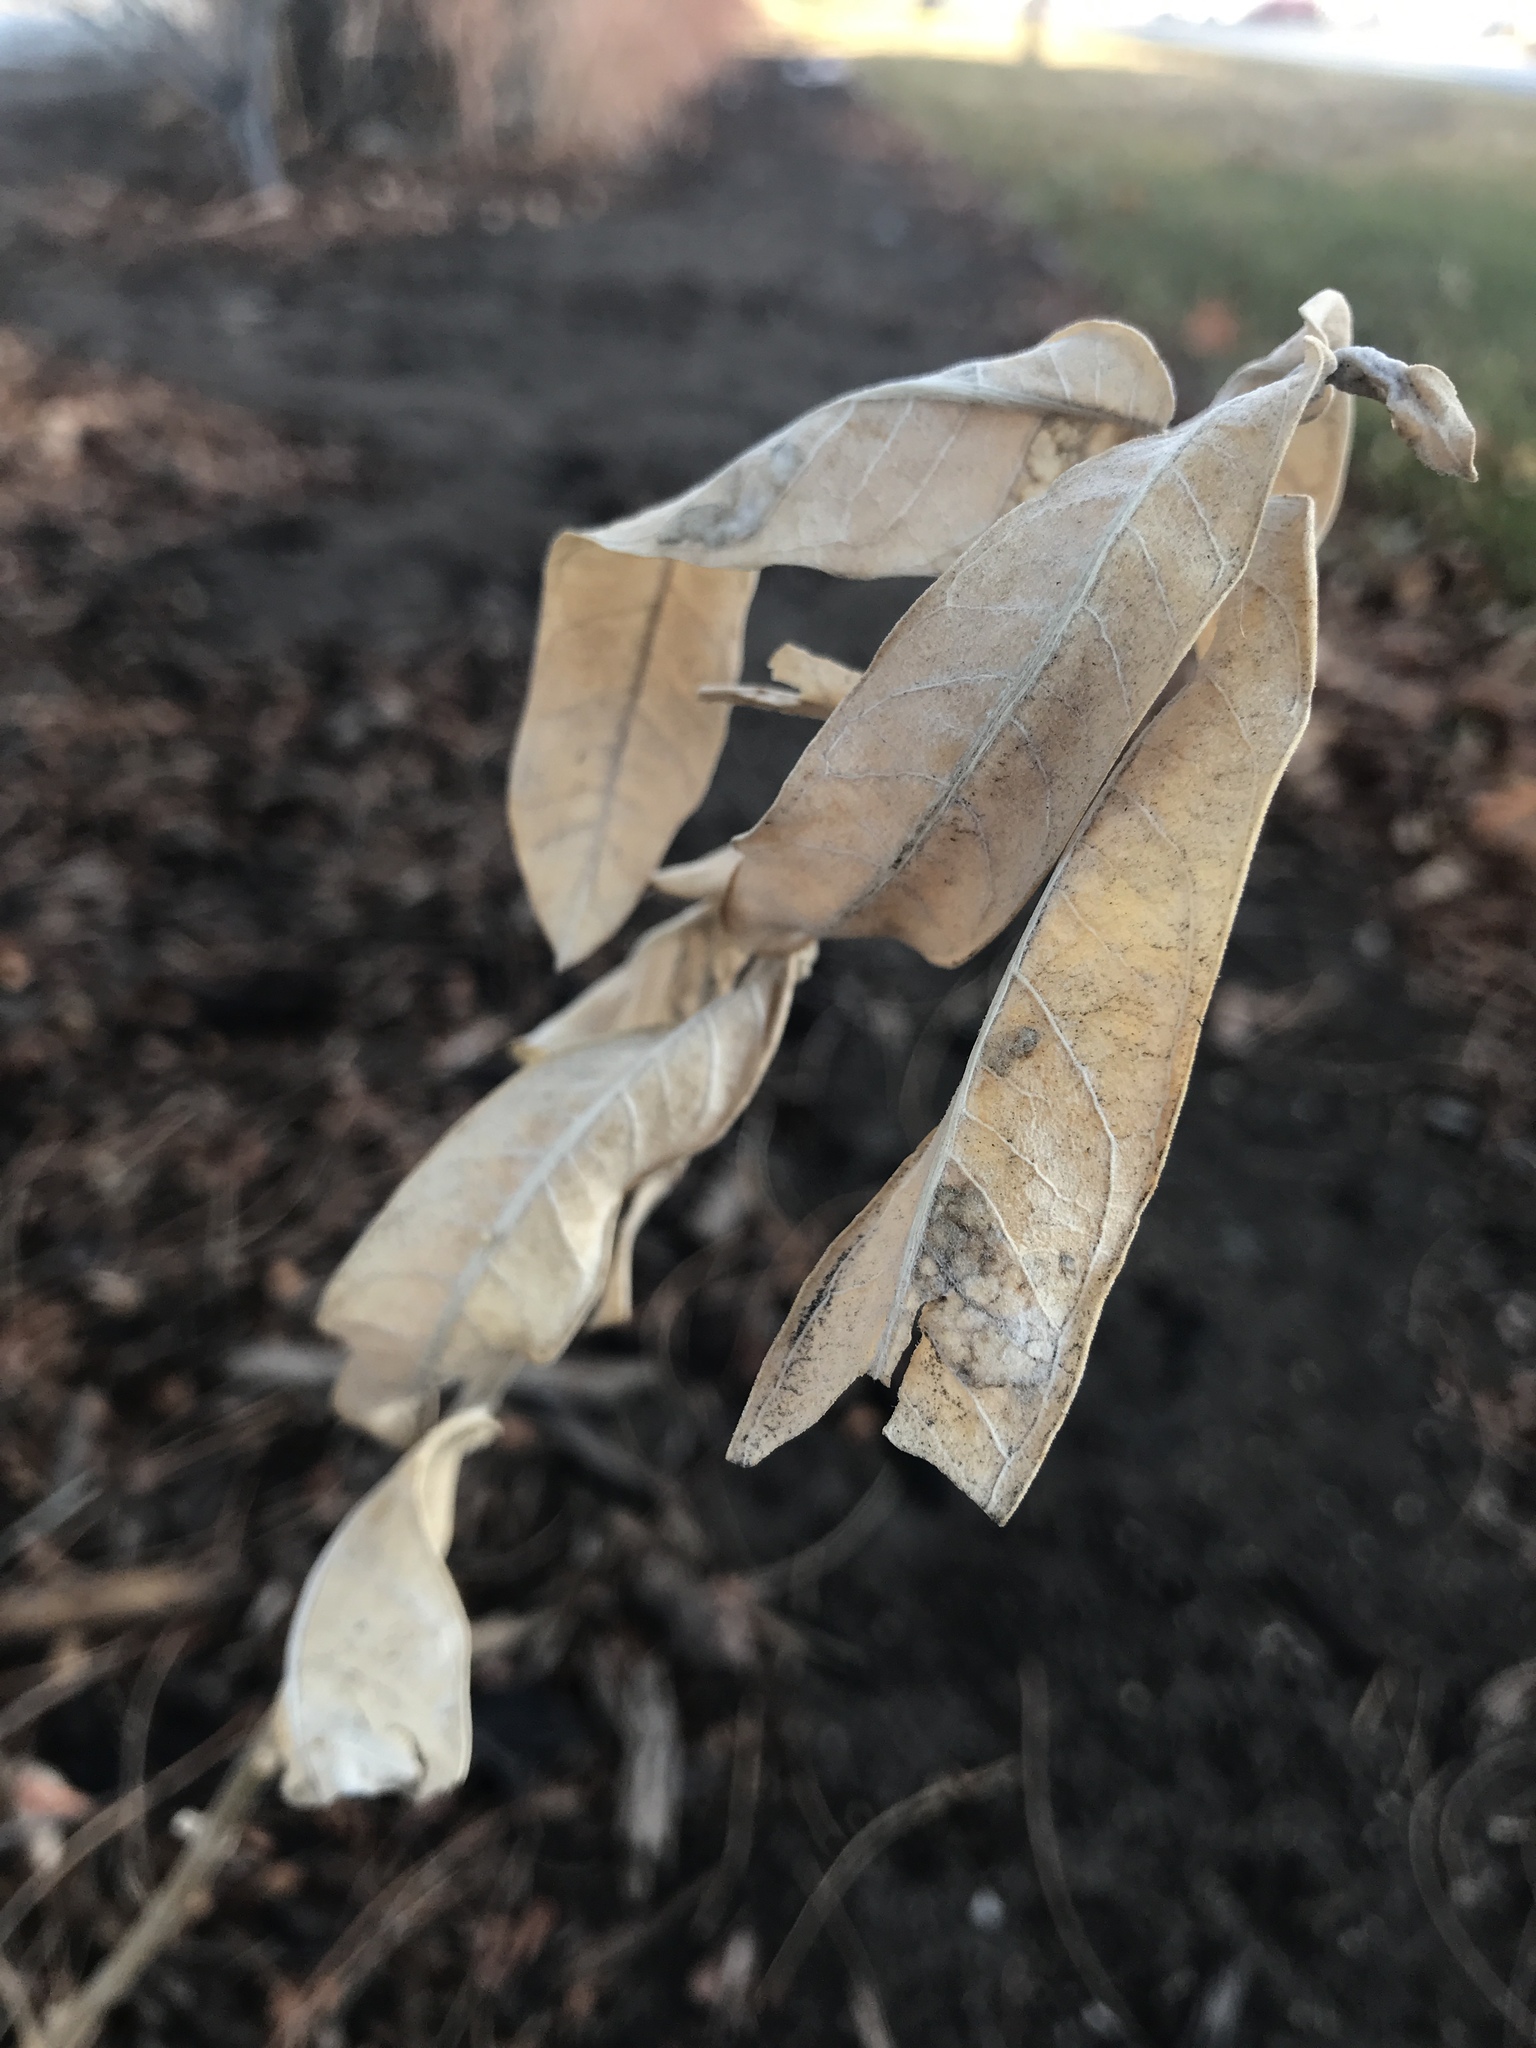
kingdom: Plantae
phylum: Tracheophyta
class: Magnoliopsida
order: Gentianales
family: Apocynaceae
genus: Asclepias
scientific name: Asclepias speciosa
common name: Showy milkweed
